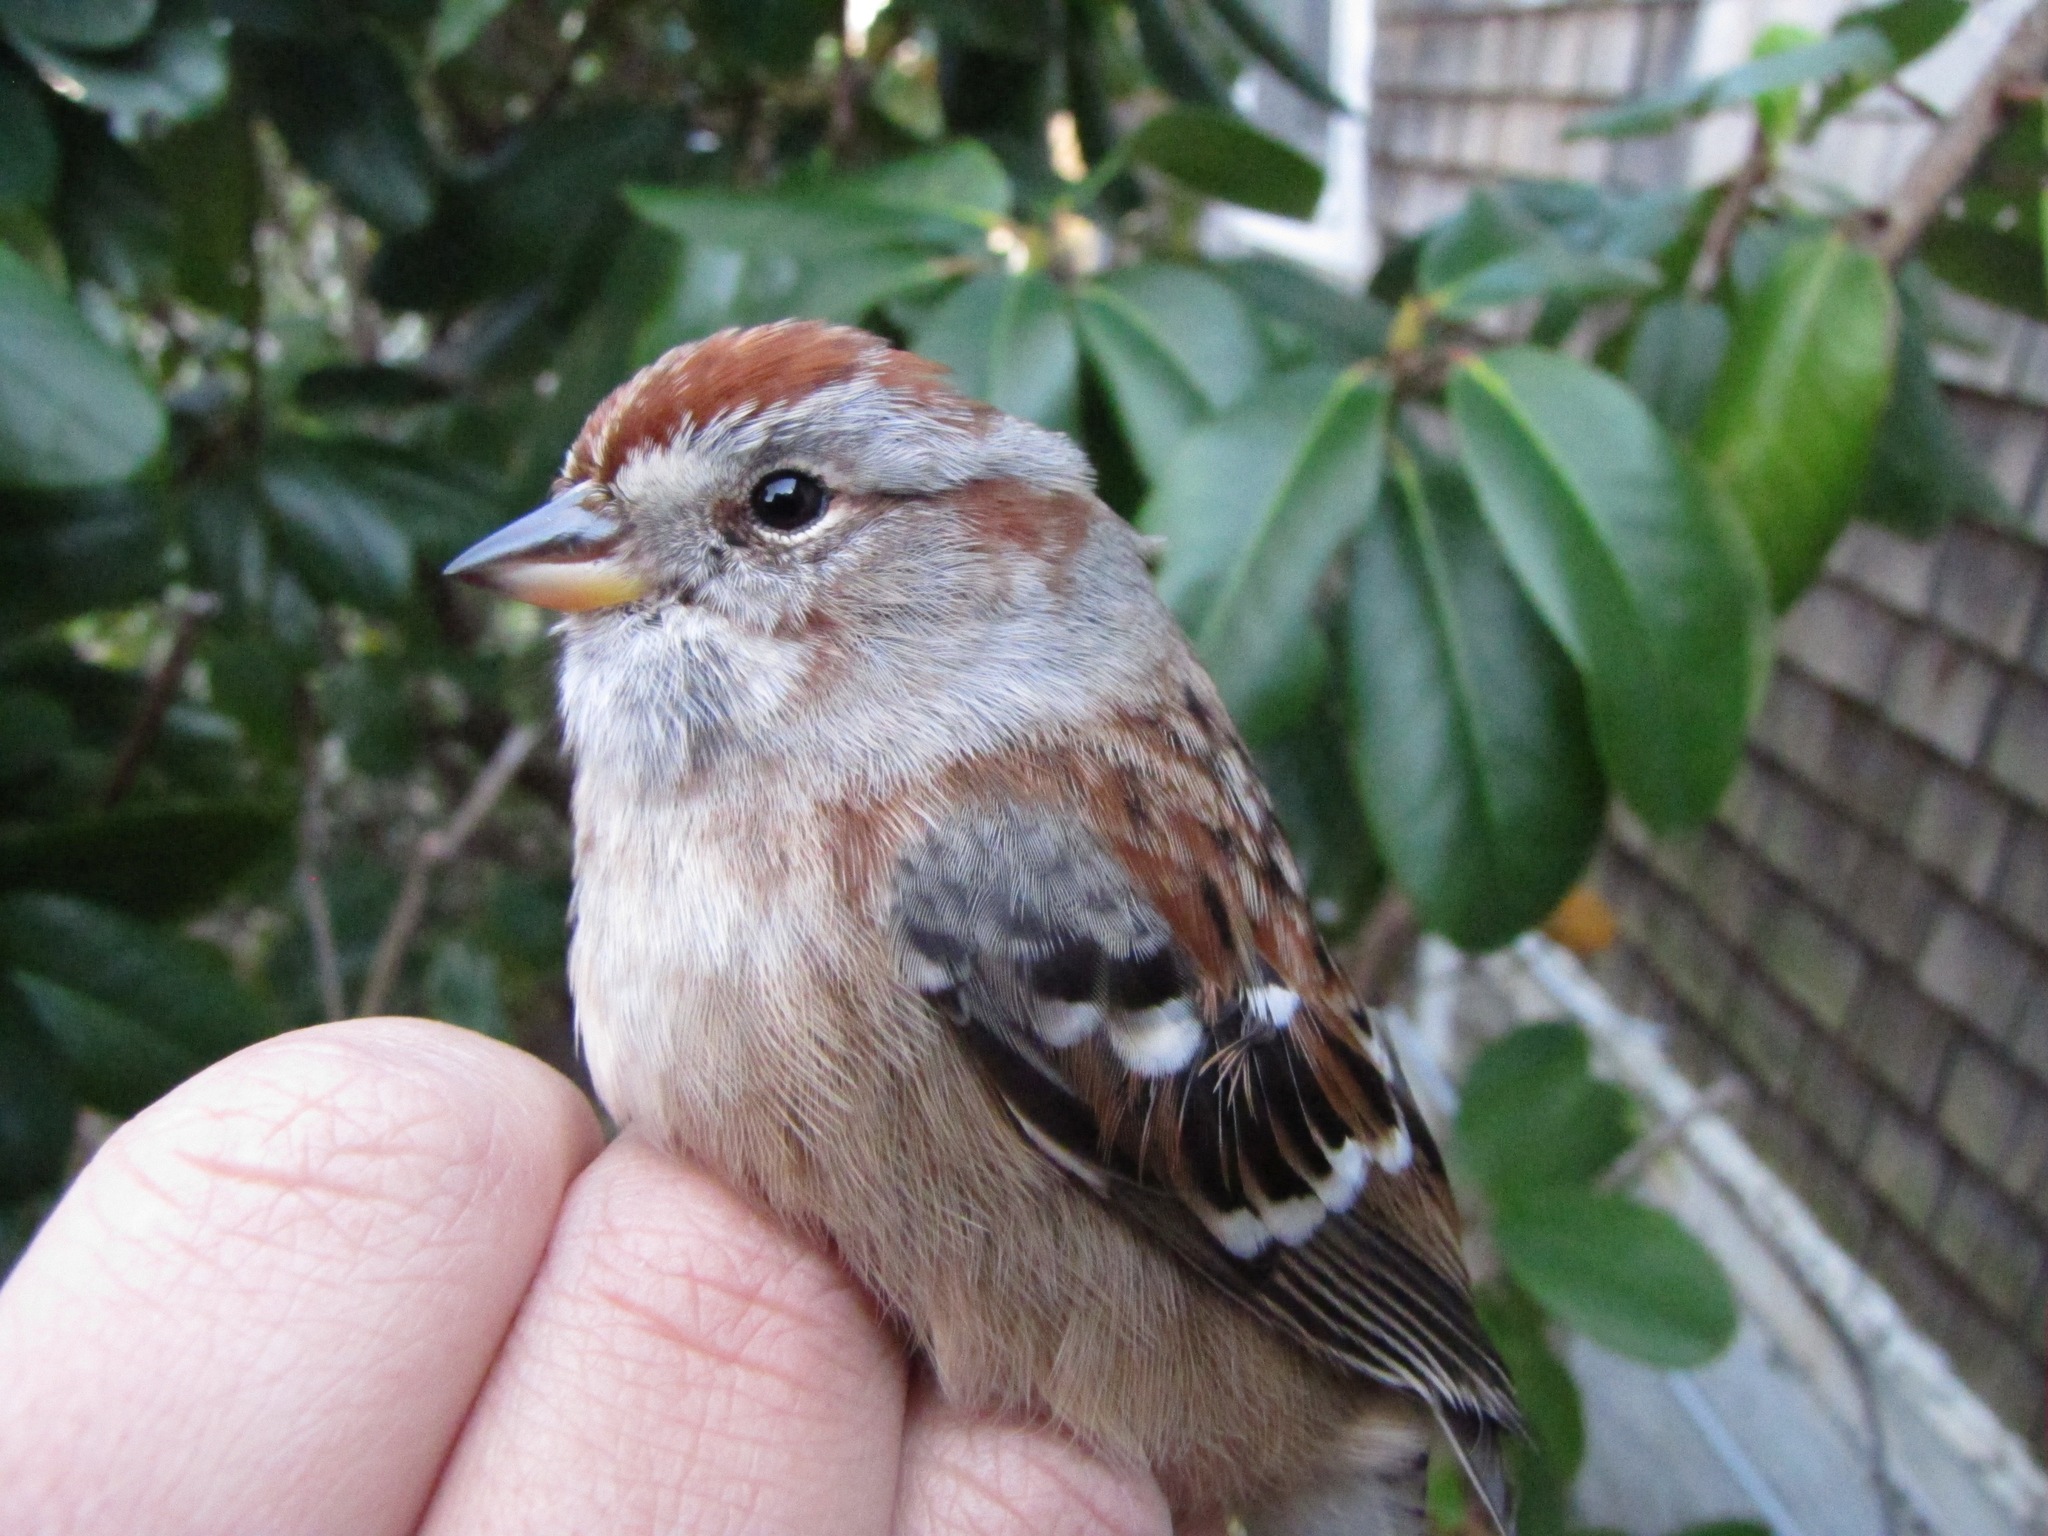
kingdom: Animalia
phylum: Chordata
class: Aves
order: Passeriformes
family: Passerellidae
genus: Spizelloides
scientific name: Spizelloides arborea
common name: American tree sparrow
